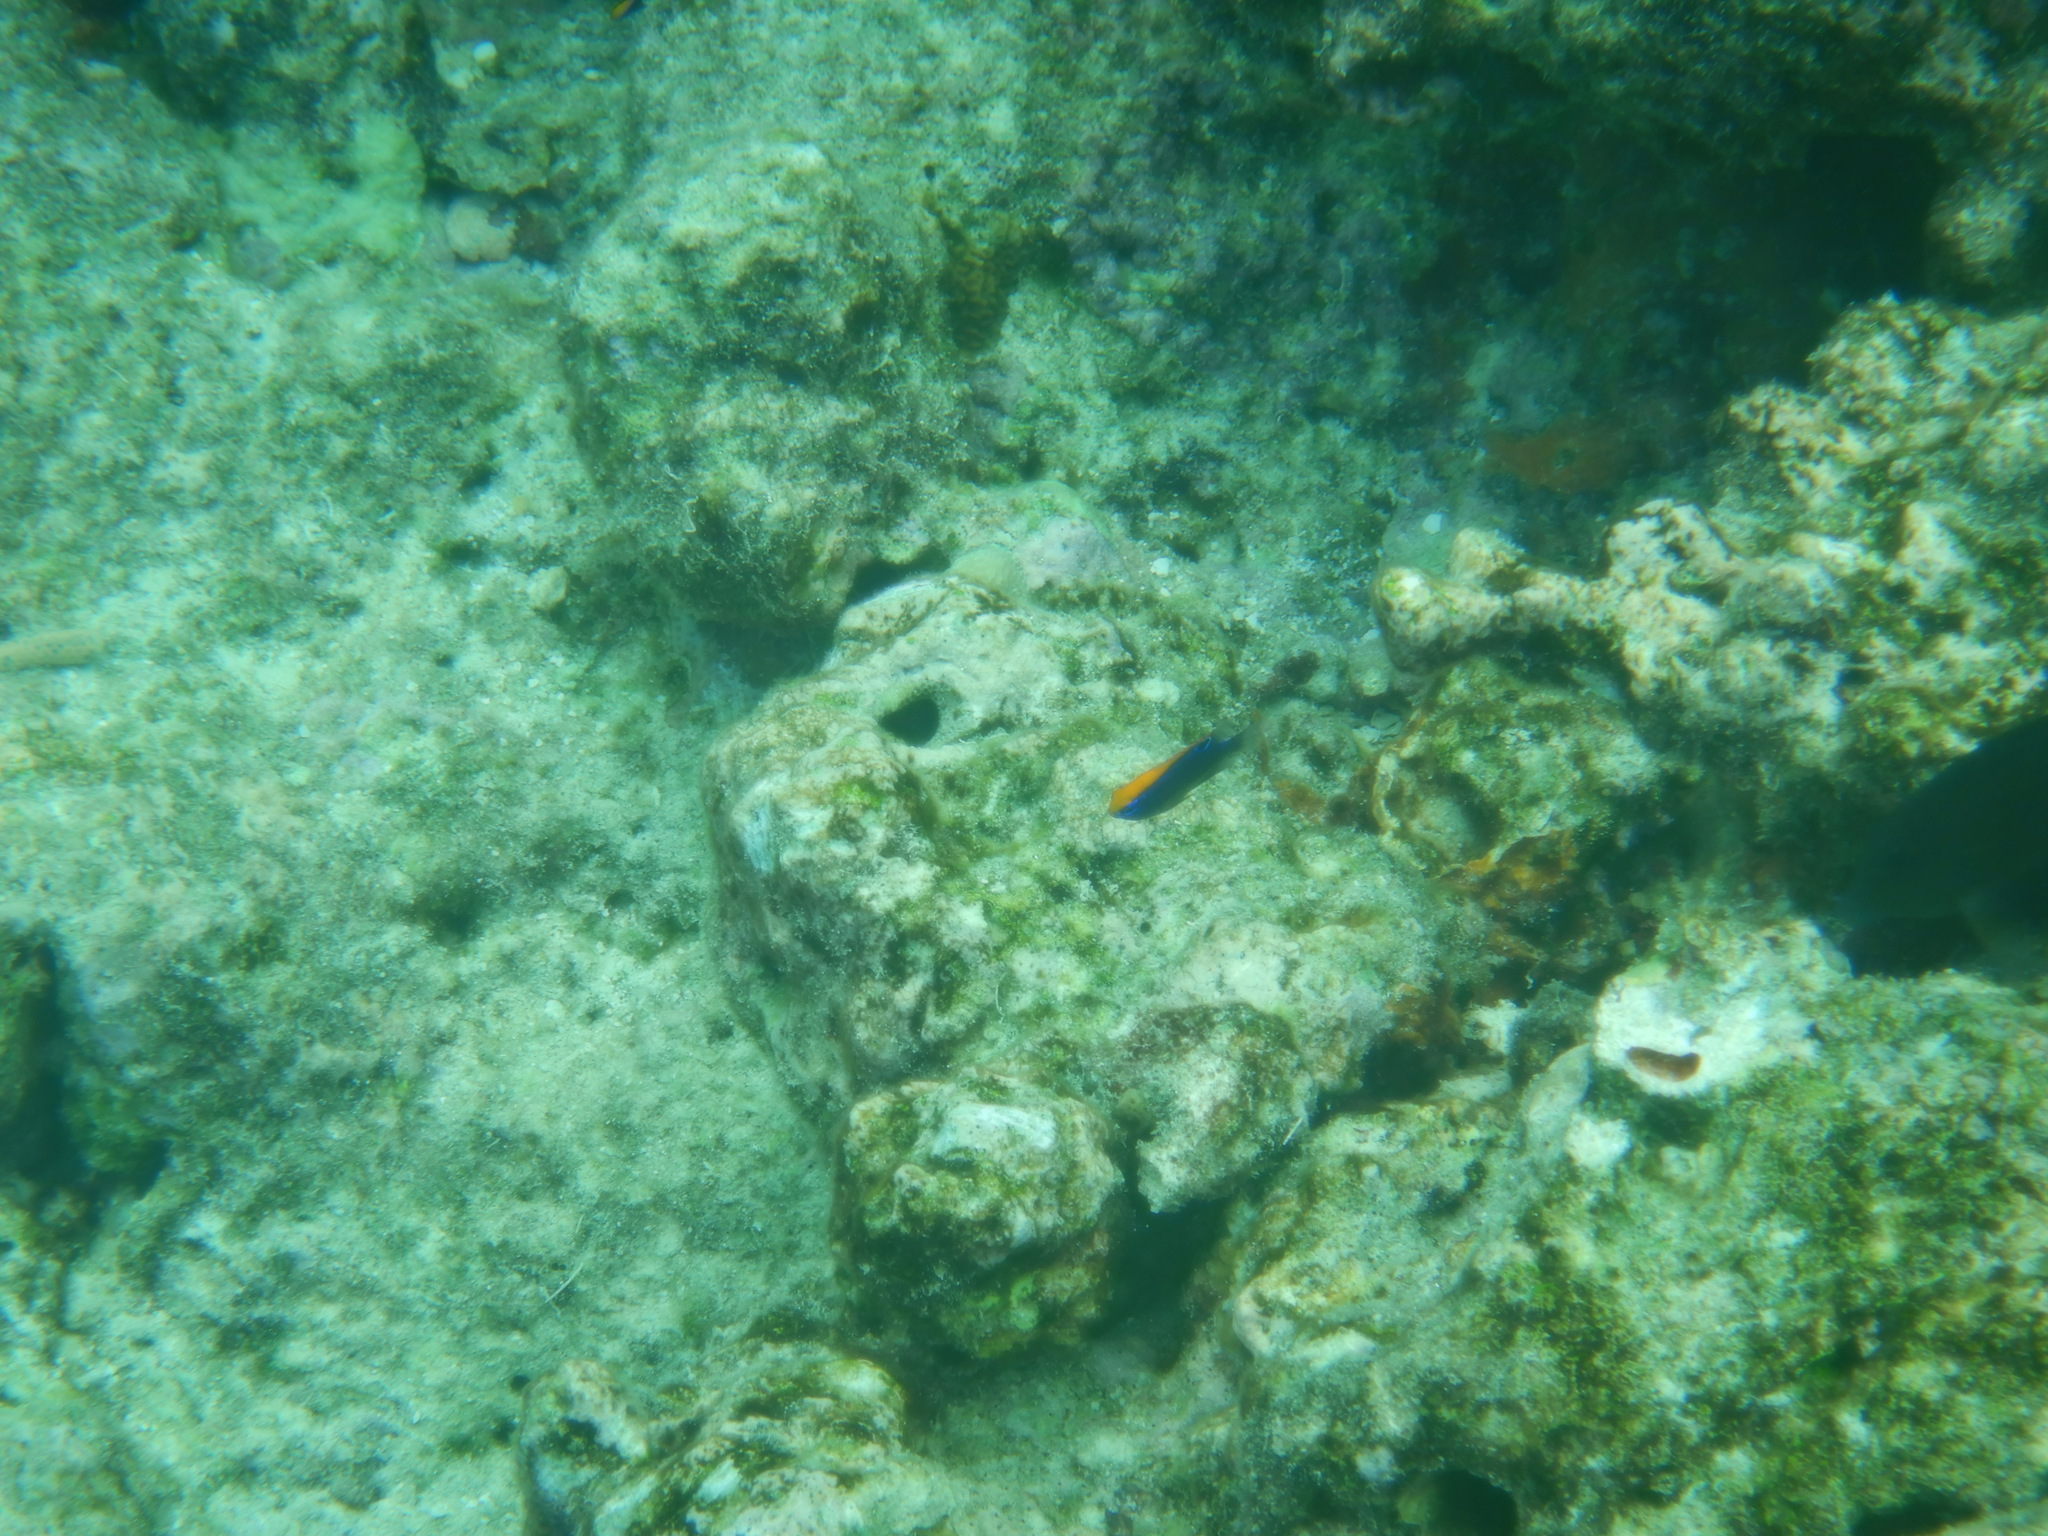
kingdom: Animalia
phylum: Chordata
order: Perciformes
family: Pomacentridae
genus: Pomacentrus
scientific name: Pomacentrus indicus
